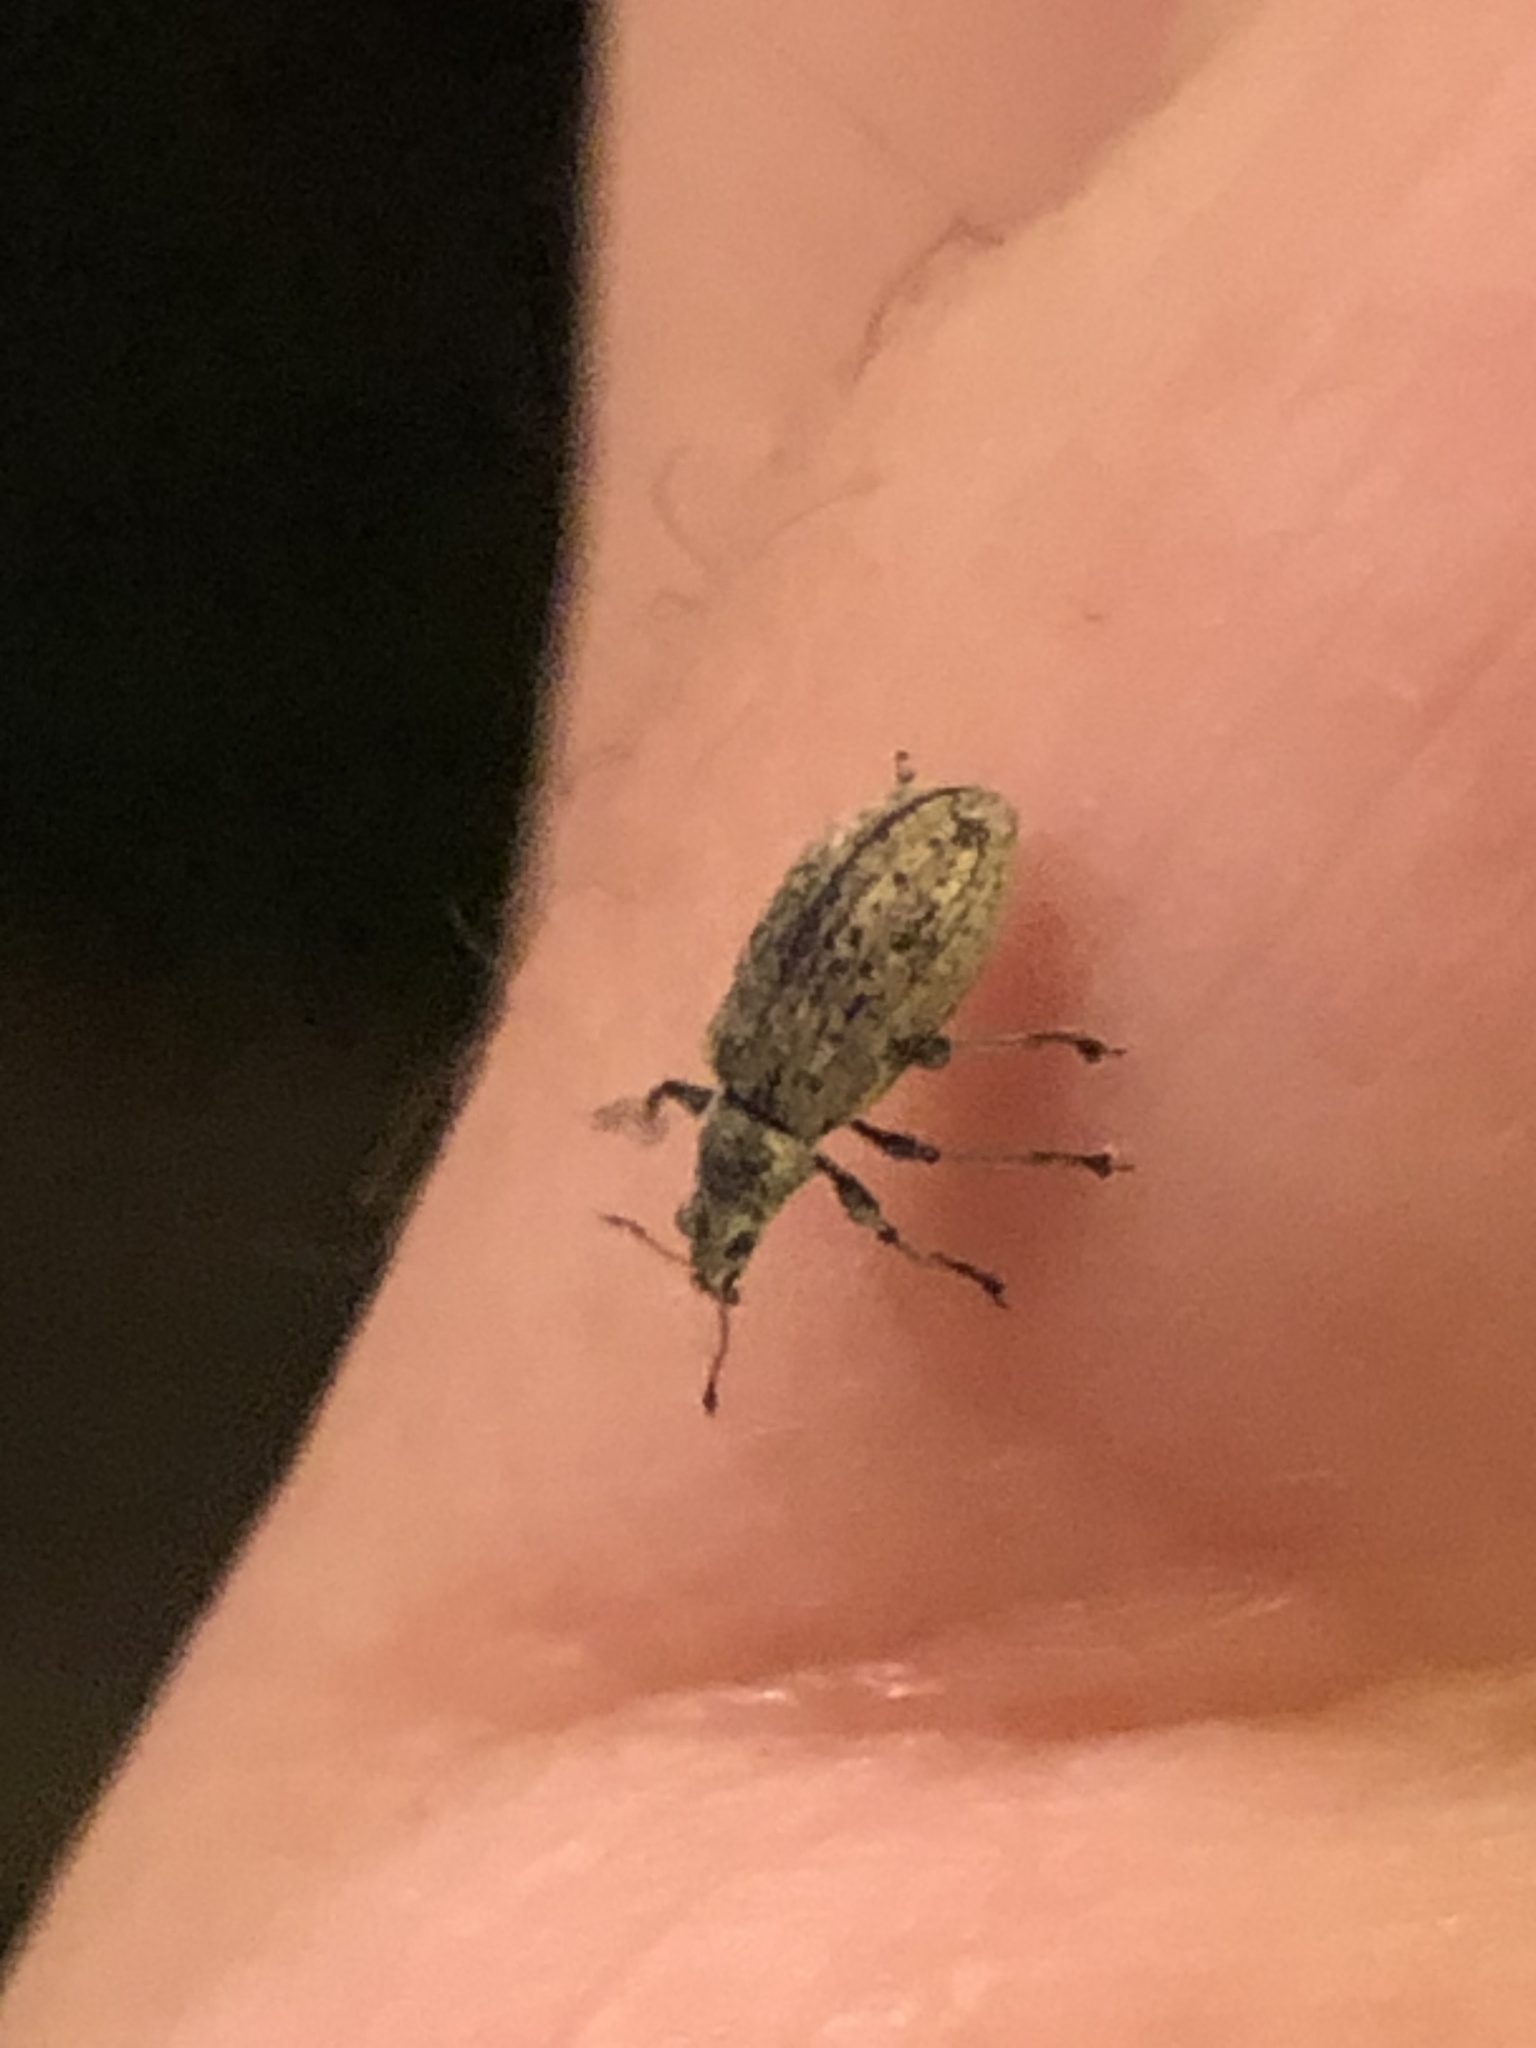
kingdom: Animalia
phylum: Arthropoda
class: Insecta
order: Coleoptera
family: Curculionidae
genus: Polydrusus
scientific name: Polydrusus cervinus
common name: Weevil
